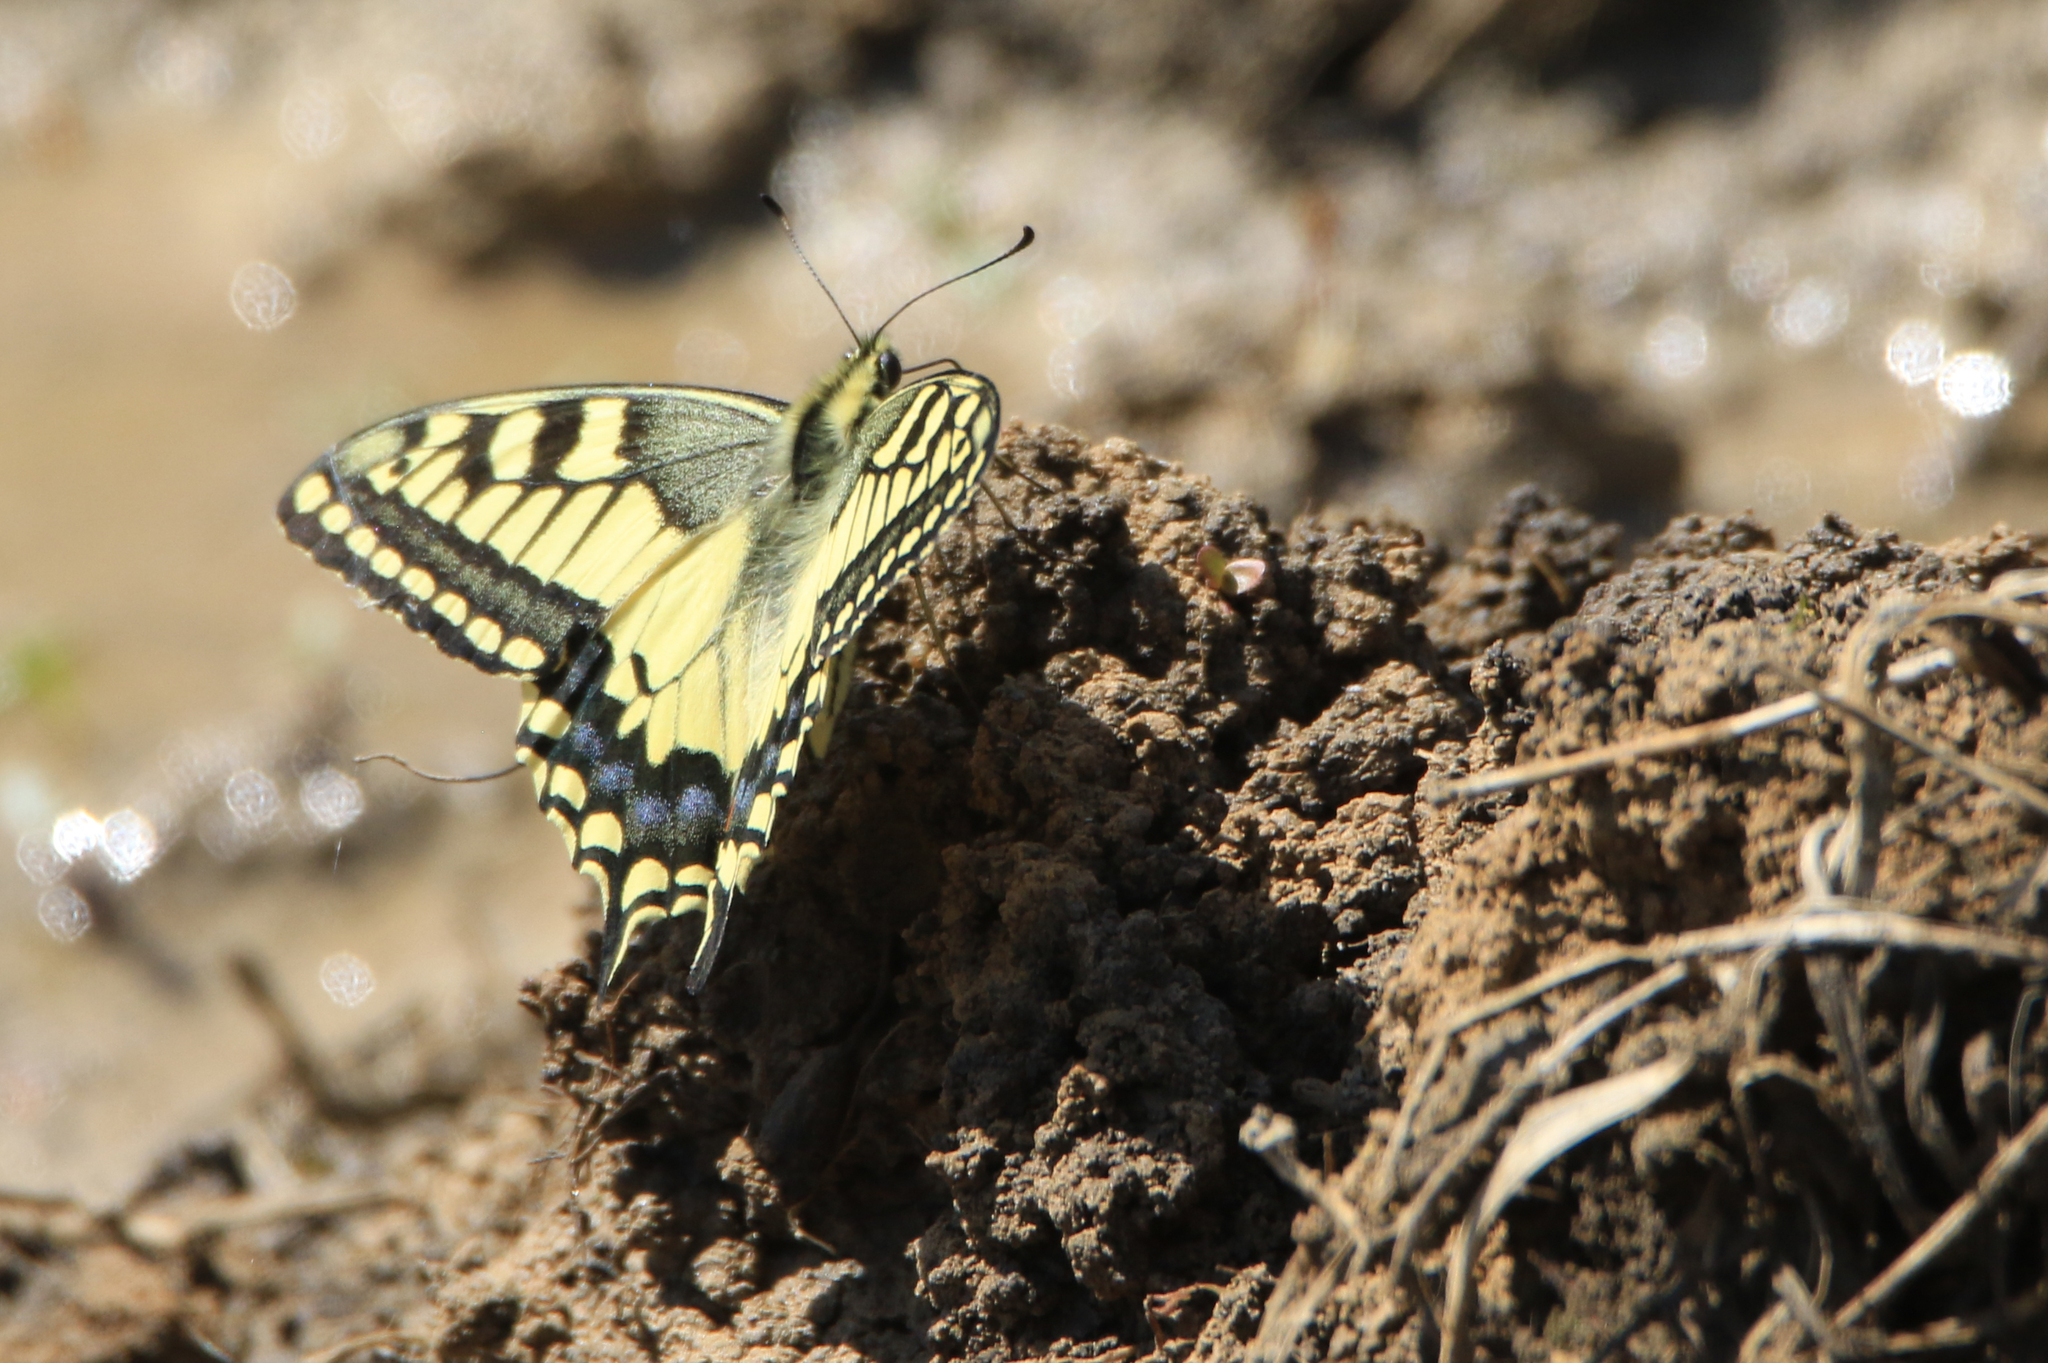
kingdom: Animalia
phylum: Arthropoda
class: Insecta
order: Lepidoptera
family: Papilionidae
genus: Papilio
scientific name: Papilio machaon
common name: Swallowtail
